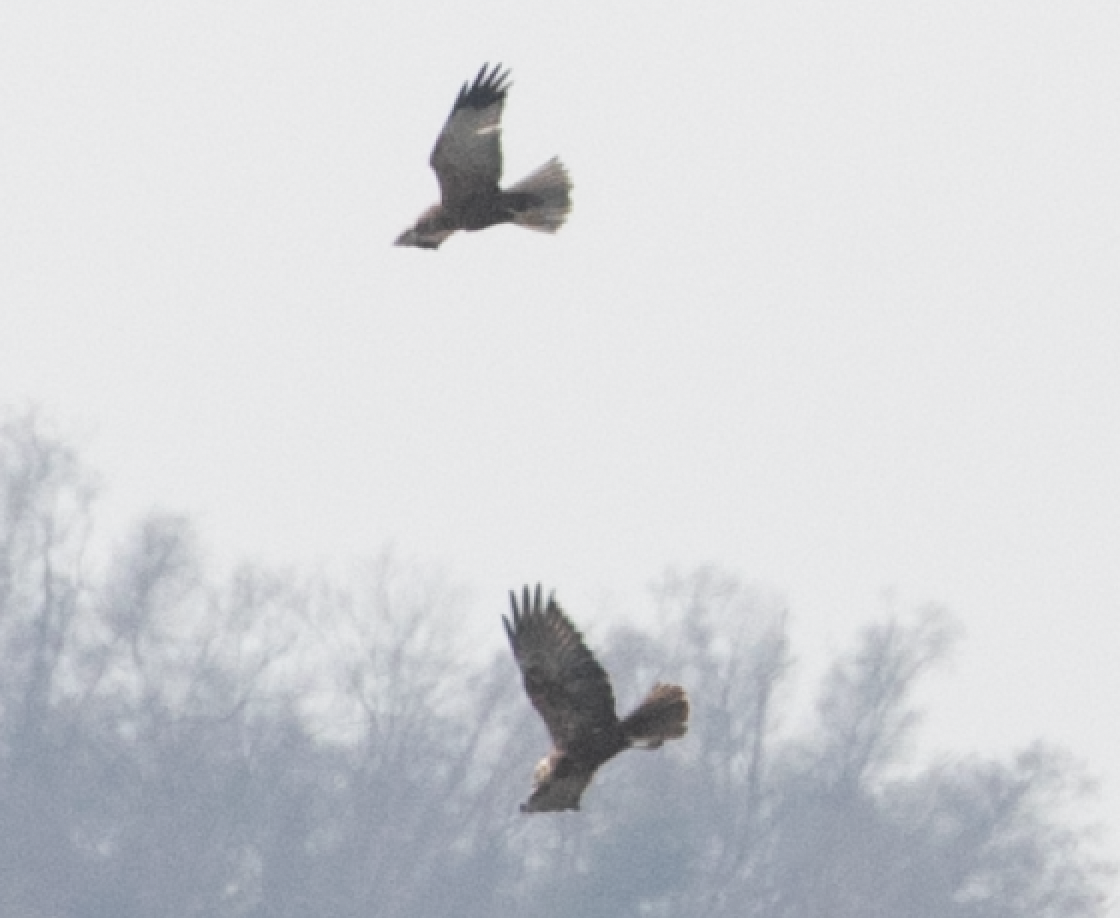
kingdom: Animalia
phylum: Chordata
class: Aves
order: Accipitriformes
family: Accipitridae
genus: Circus
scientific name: Circus aeruginosus
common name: Western marsh harrier
